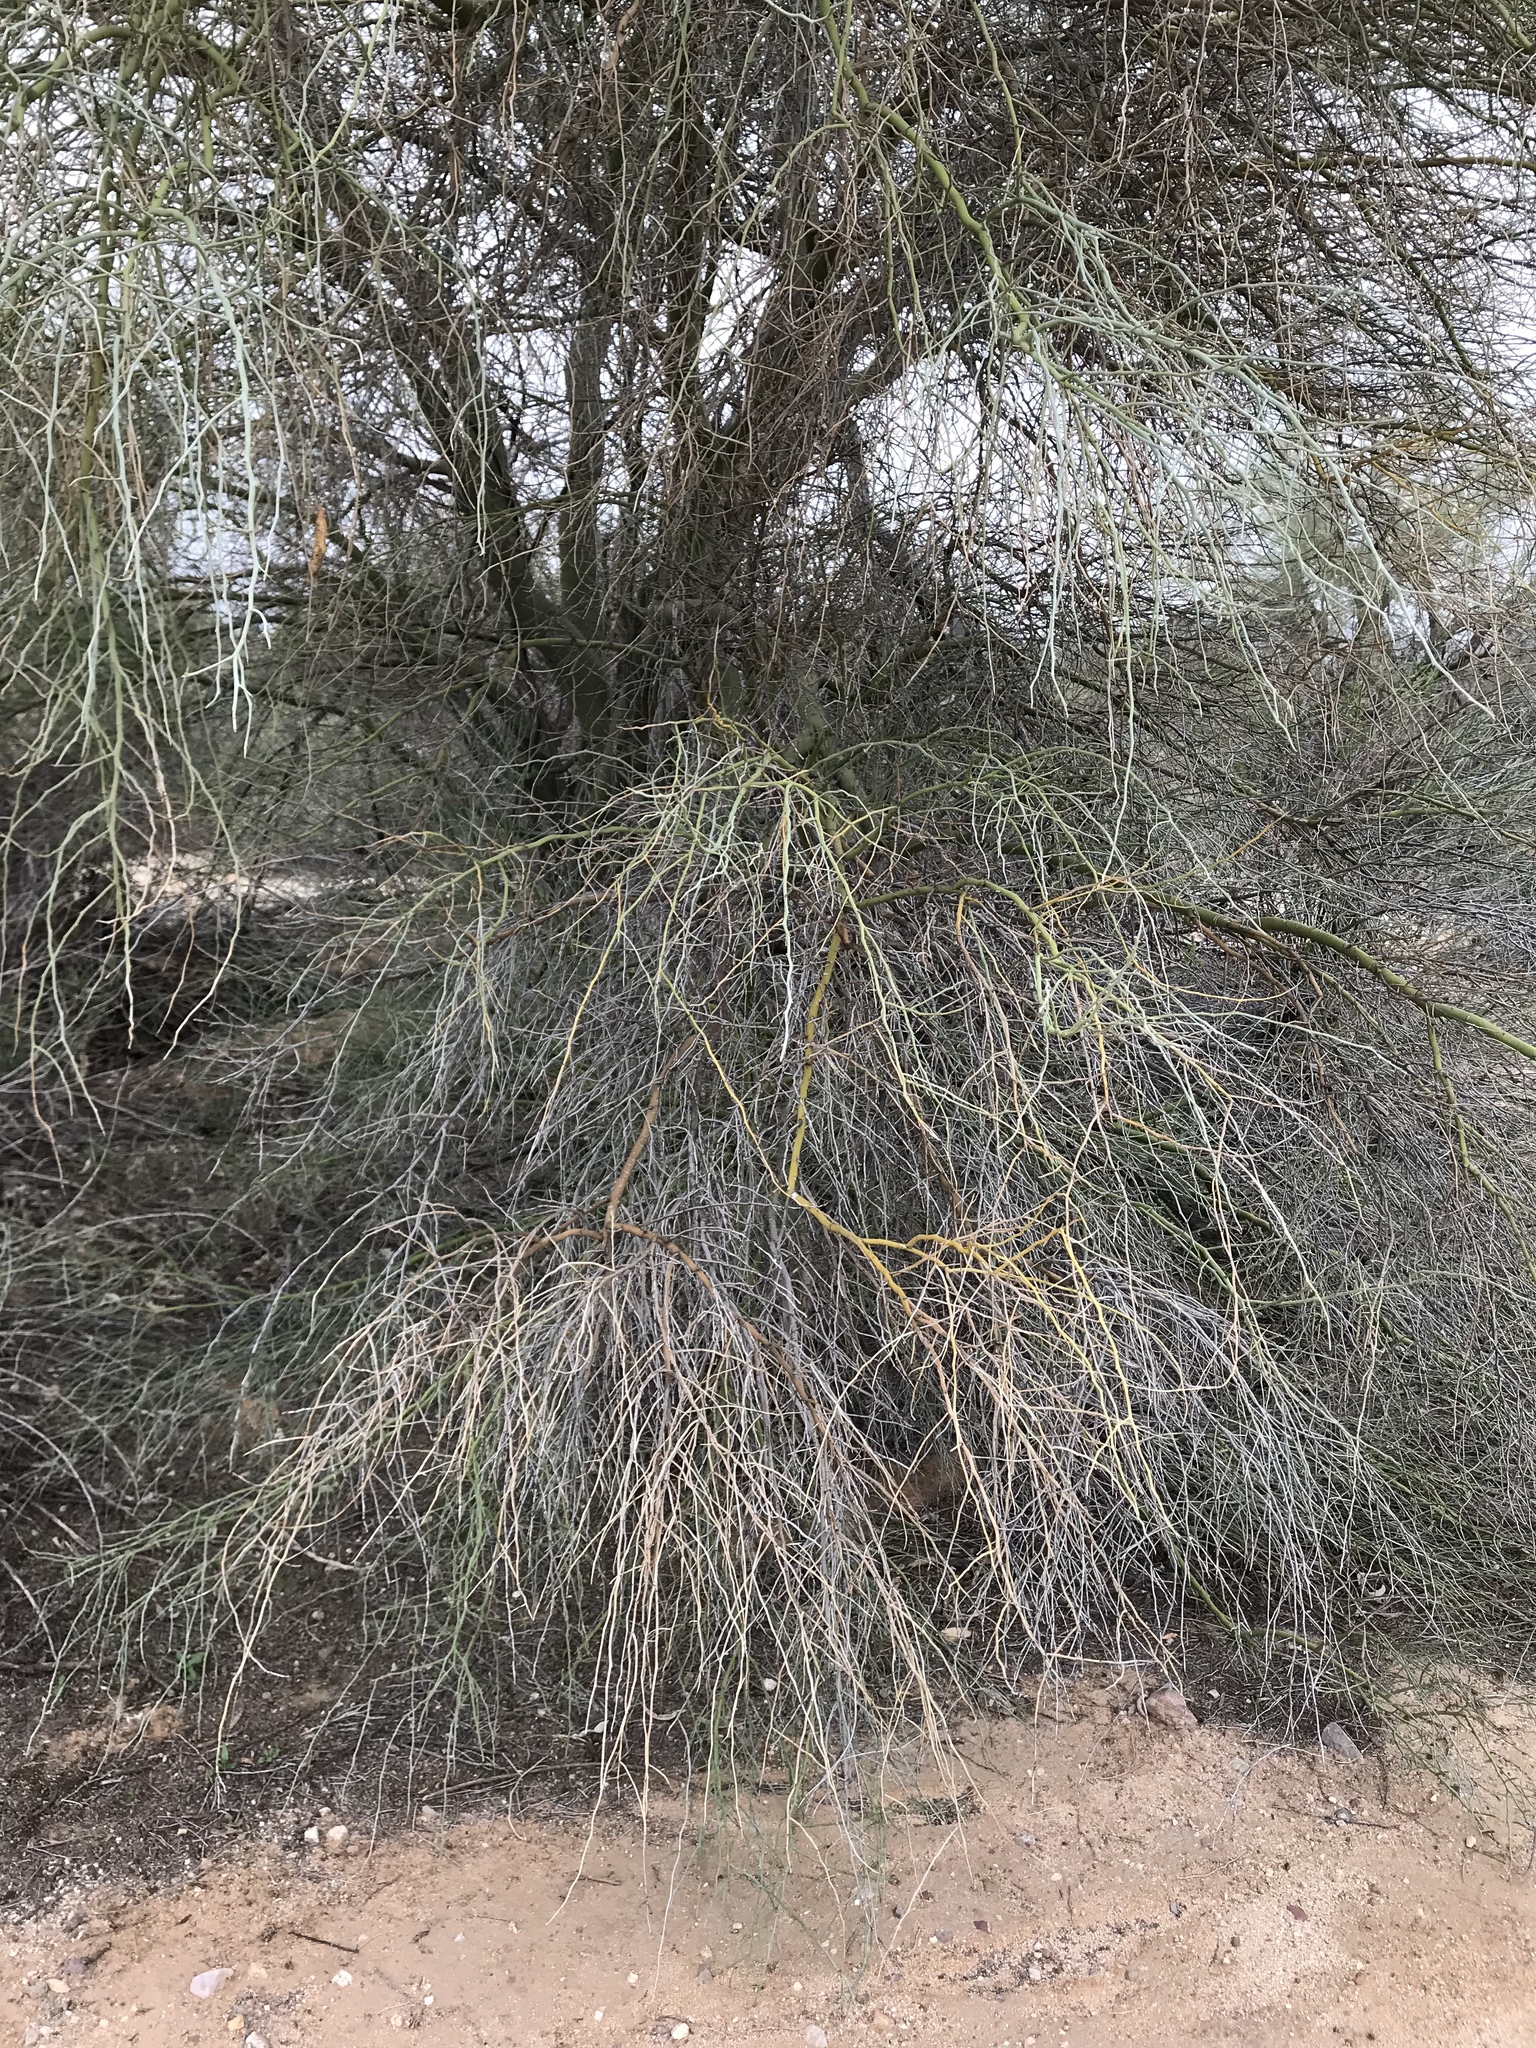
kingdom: Plantae
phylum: Tracheophyta
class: Magnoliopsida
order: Fabales
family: Fabaceae
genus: Parkinsonia
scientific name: Parkinsonia florida
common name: Blue paloverde
